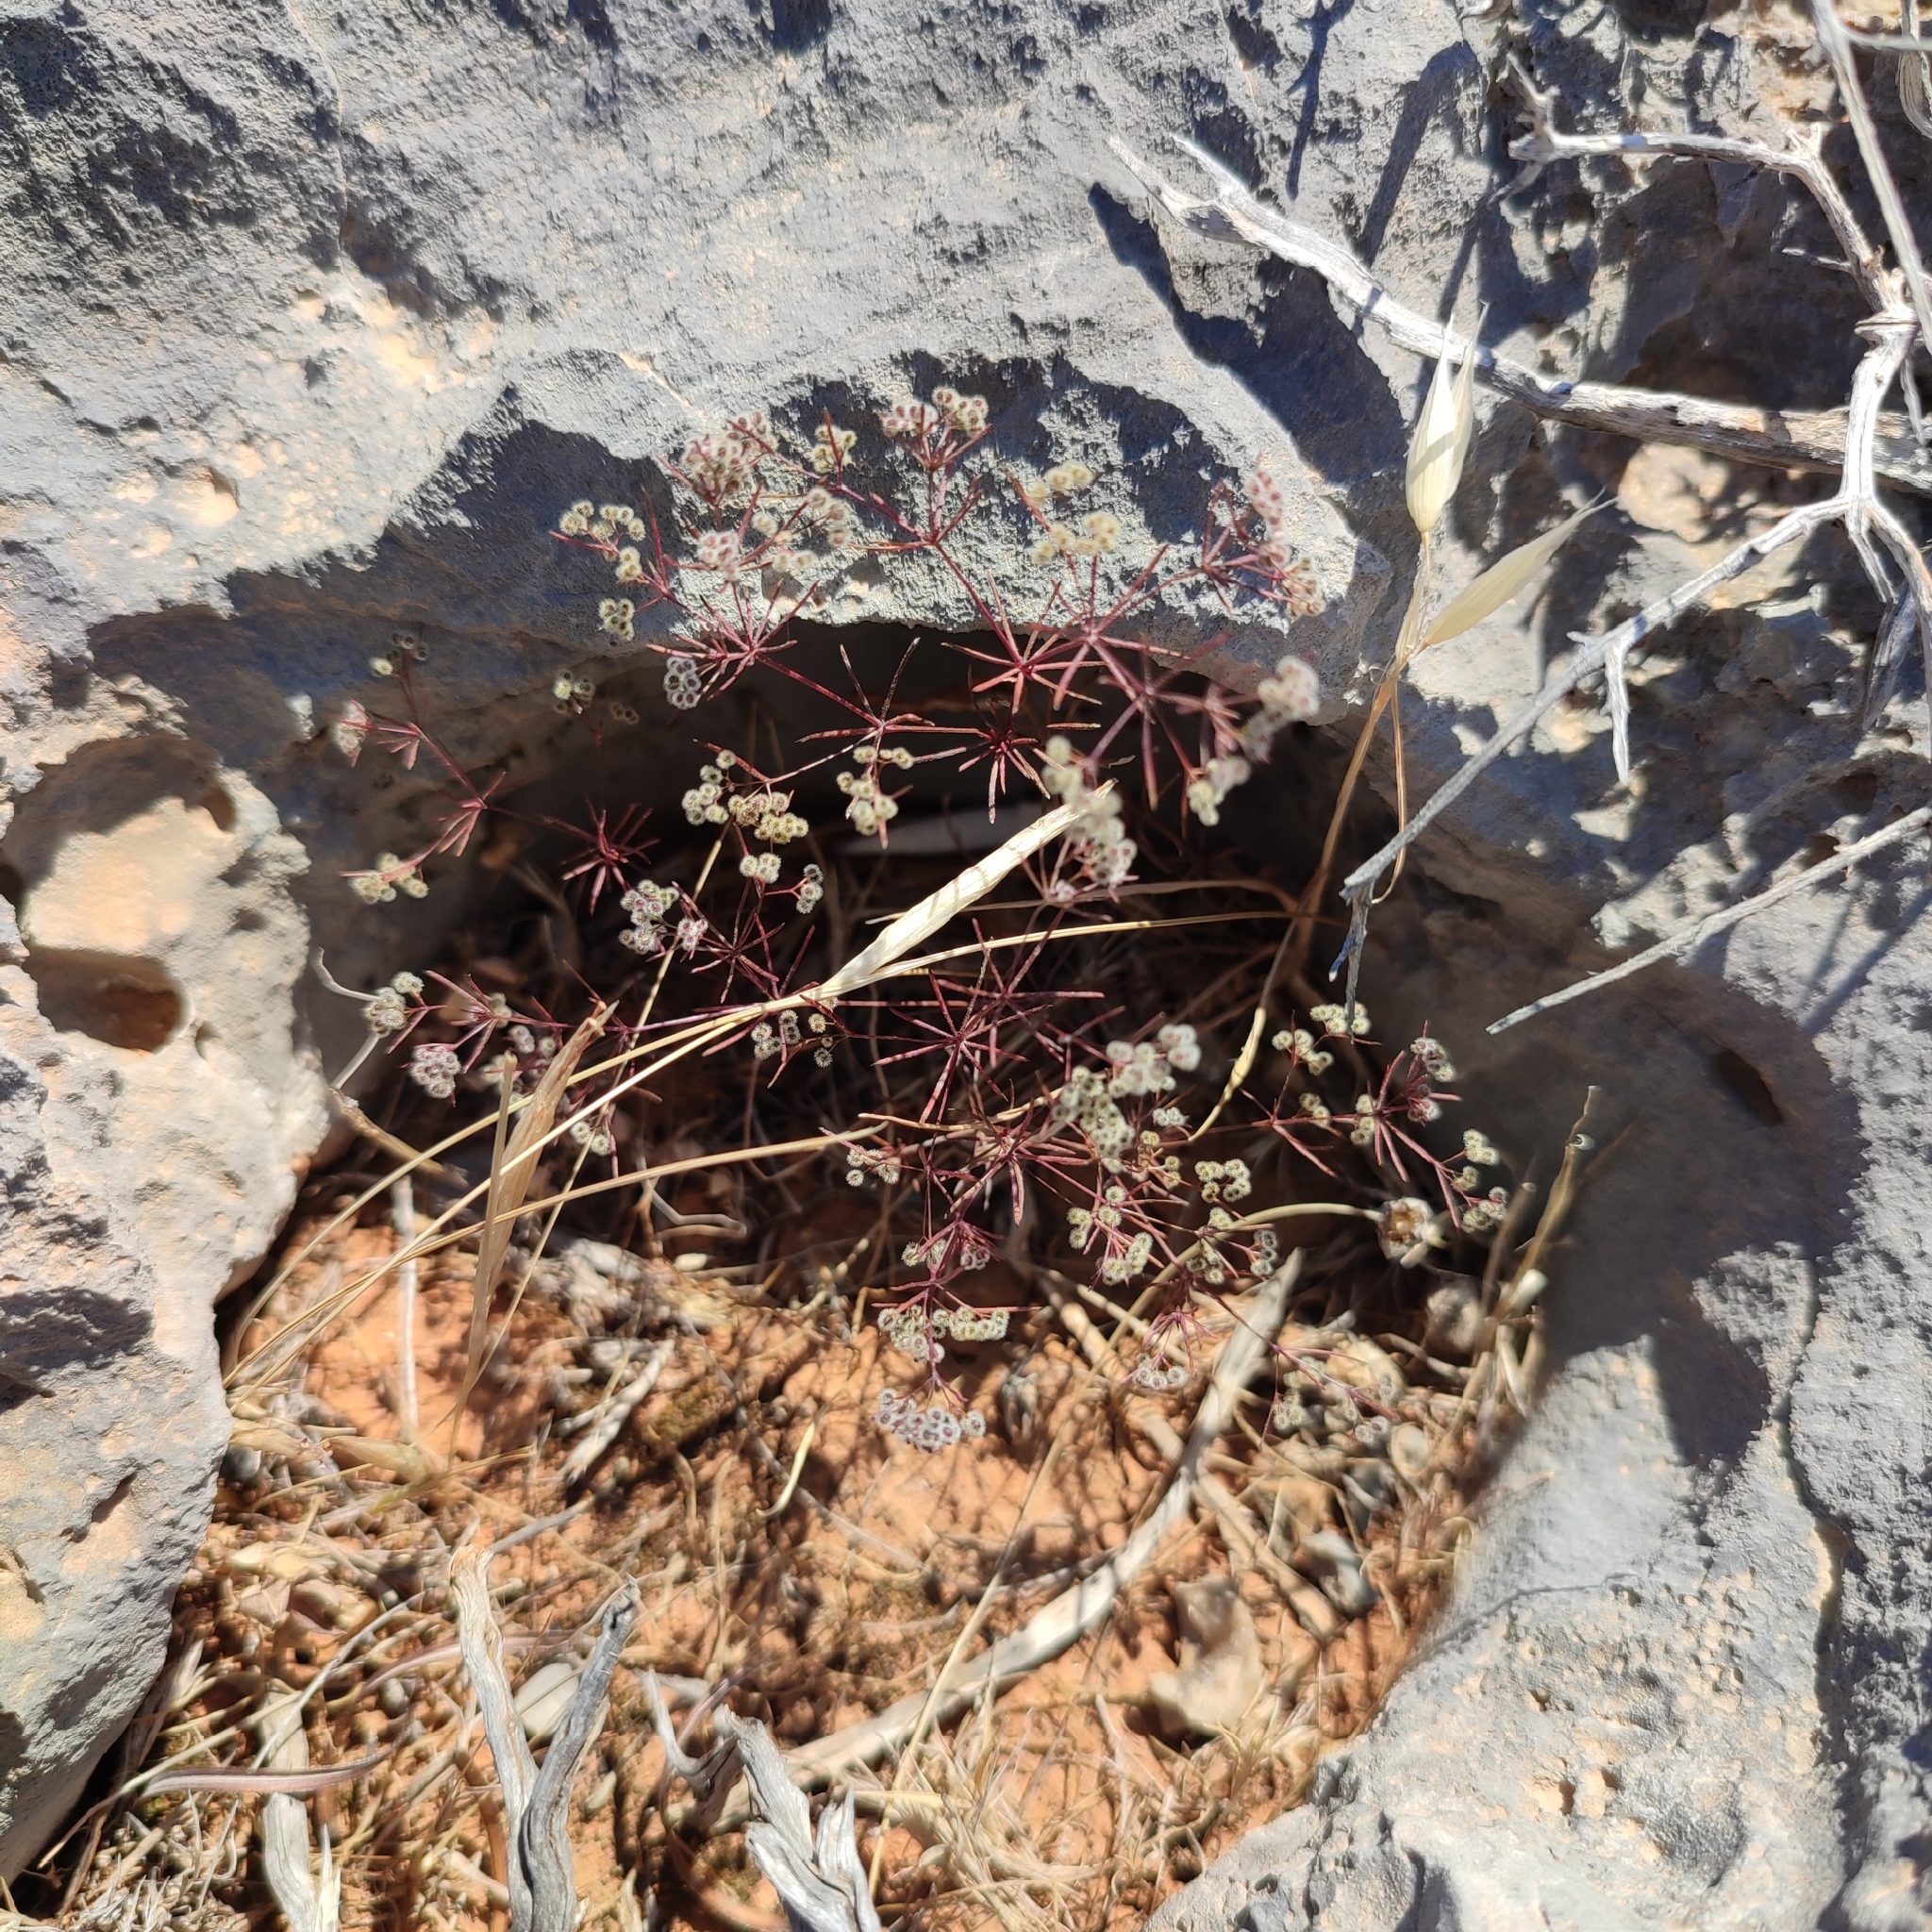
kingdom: Plantae
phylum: Tracheophyta
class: Magnoliopsida
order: Gentianales
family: Rubiaceae
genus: Galium
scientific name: Galium setaceum
